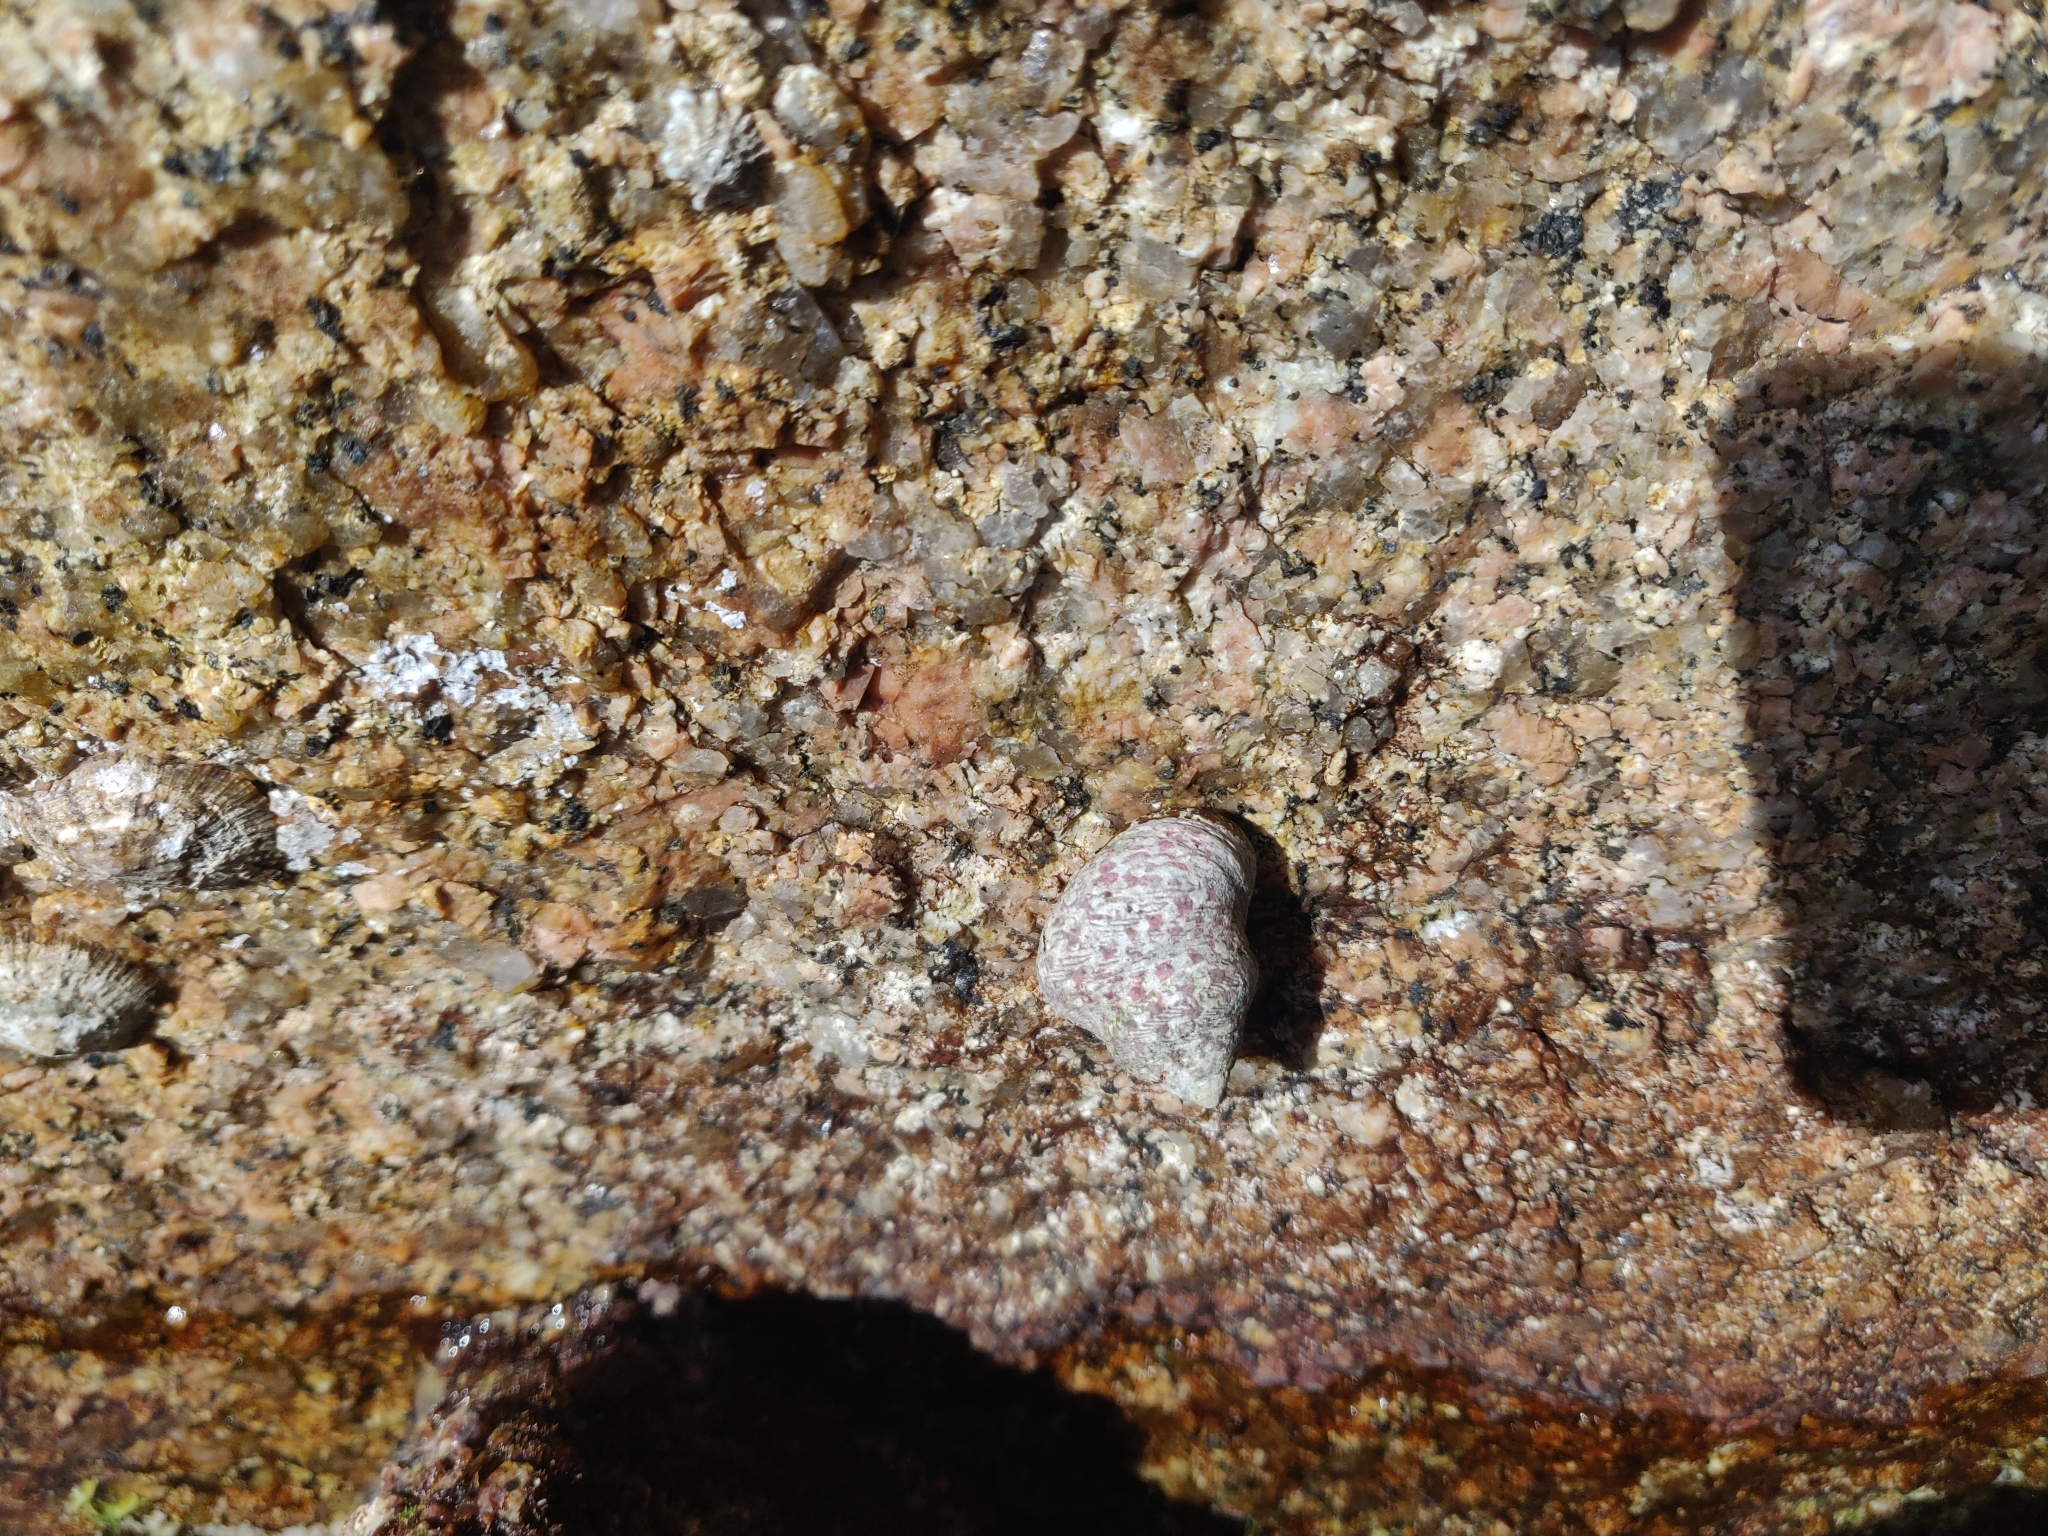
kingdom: Animalia
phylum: Mollusca
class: Gastropoda
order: Trochida
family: Trochidae
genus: Phorcus
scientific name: Phorcus articulatus
